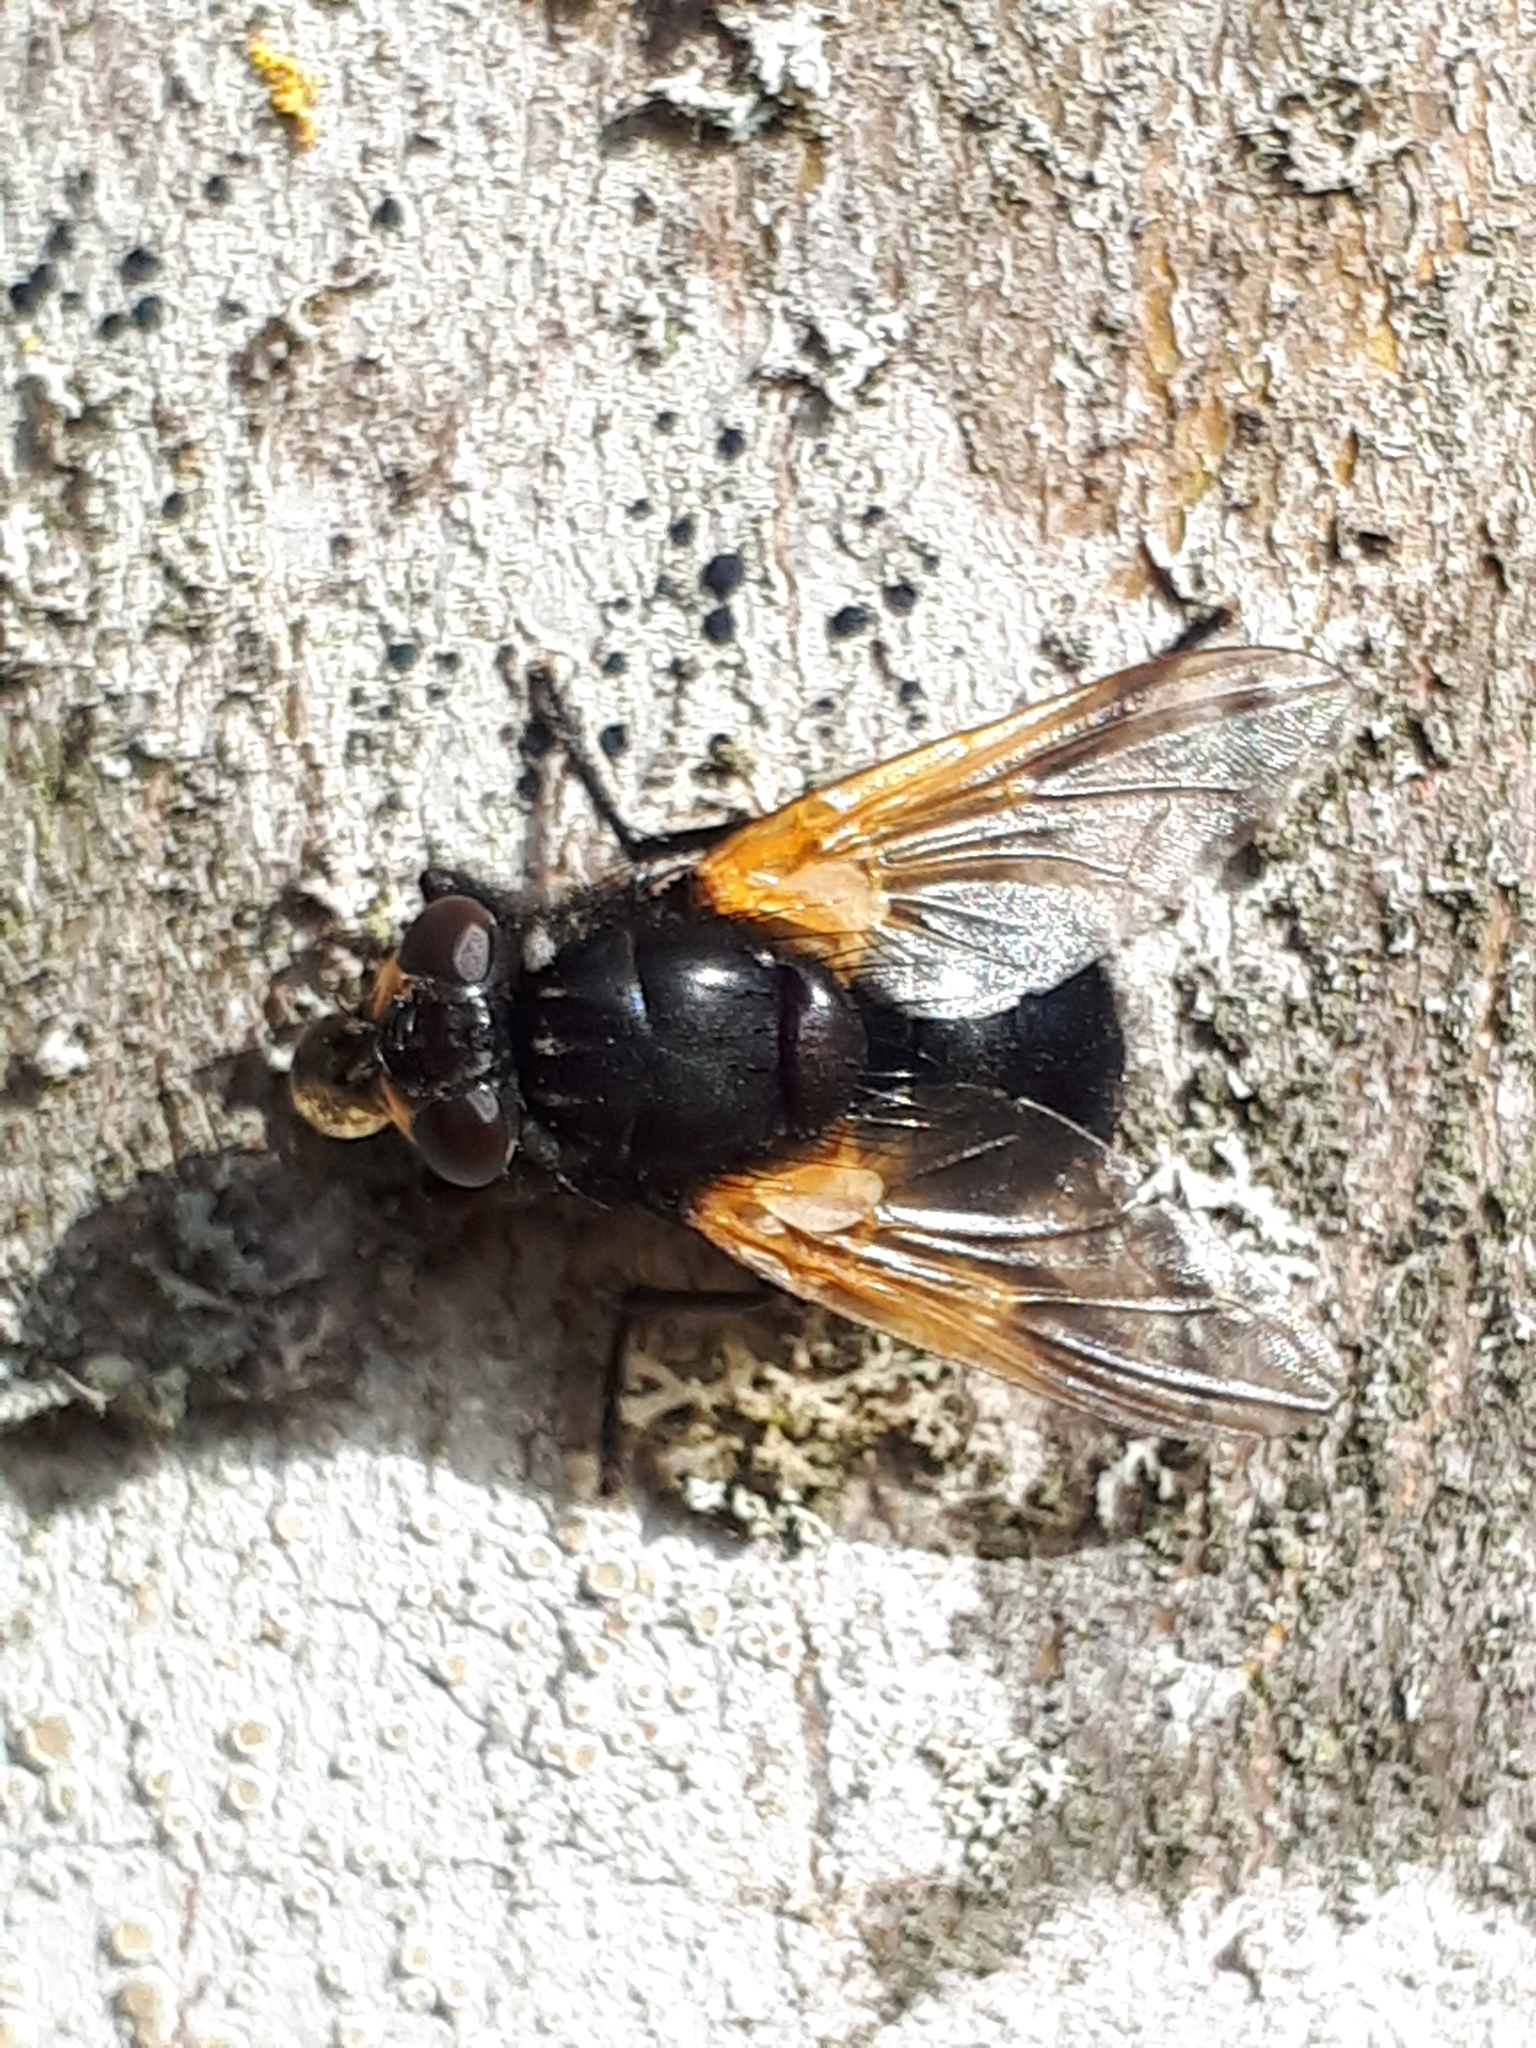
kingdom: Animalia
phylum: Arthropoda
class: Insecta
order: Diptera
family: Muscidae
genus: Mesembrina
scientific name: Mesembrina meridiana
